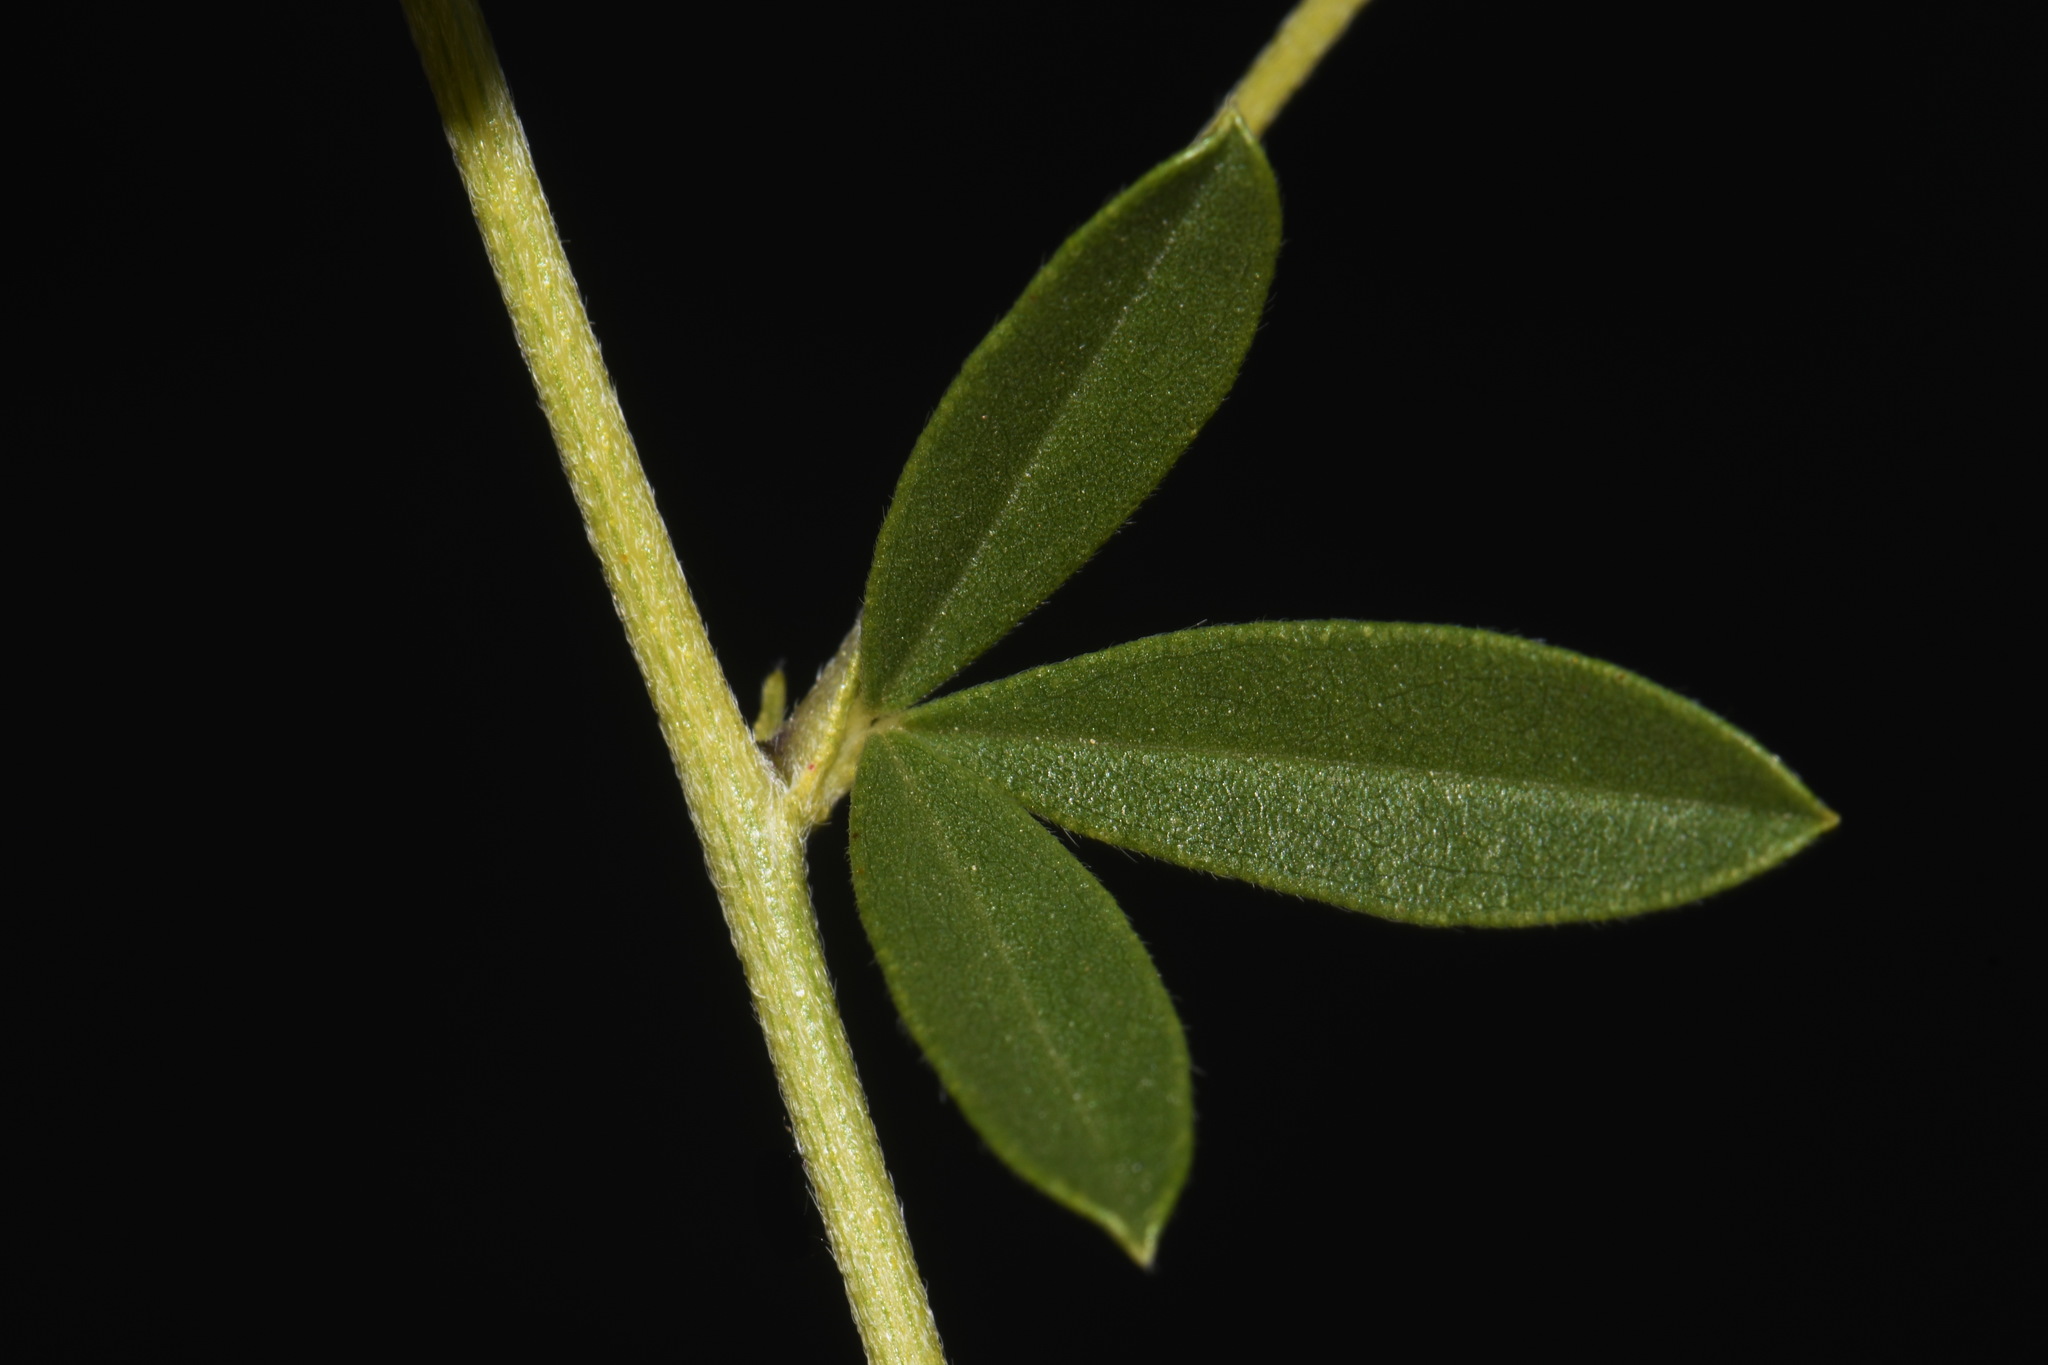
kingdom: Plantae
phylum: Tracheophyta
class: Magnoliopsida
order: Fabales
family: Fabaceae
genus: Pediomelum
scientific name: Pediomelum tenuiflorum
